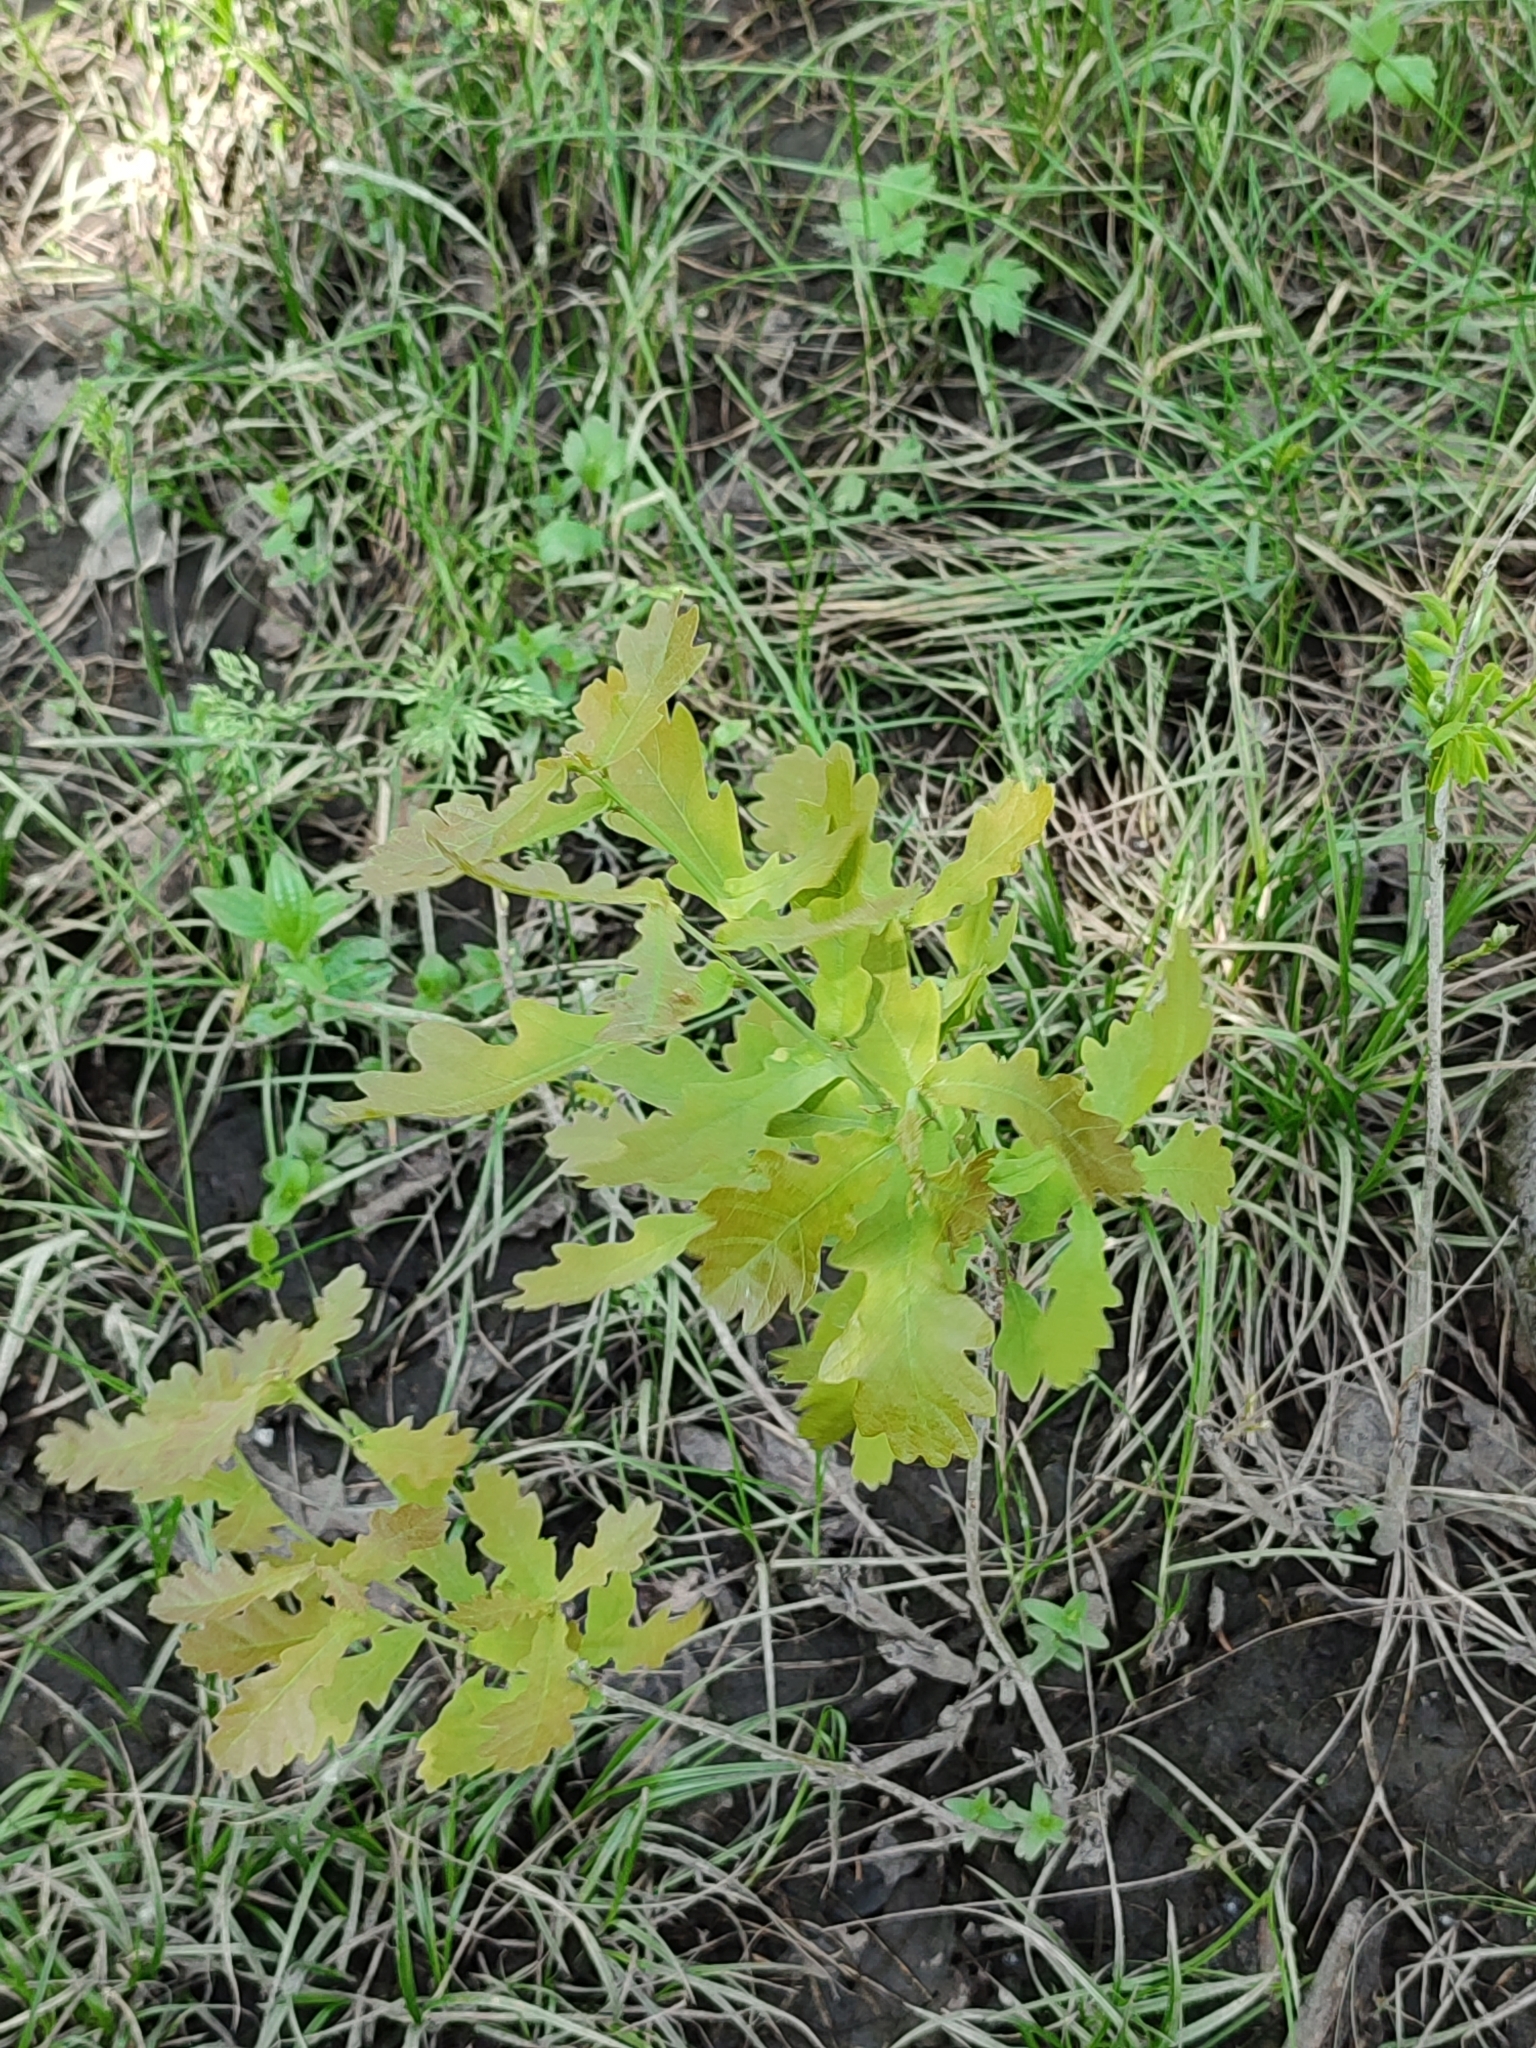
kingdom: Plantae
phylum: Tracheophyta
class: Magnoliopsida
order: Fagales
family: Fagaceae
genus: Quercus
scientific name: Quercus robur
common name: Pedunculate oak
